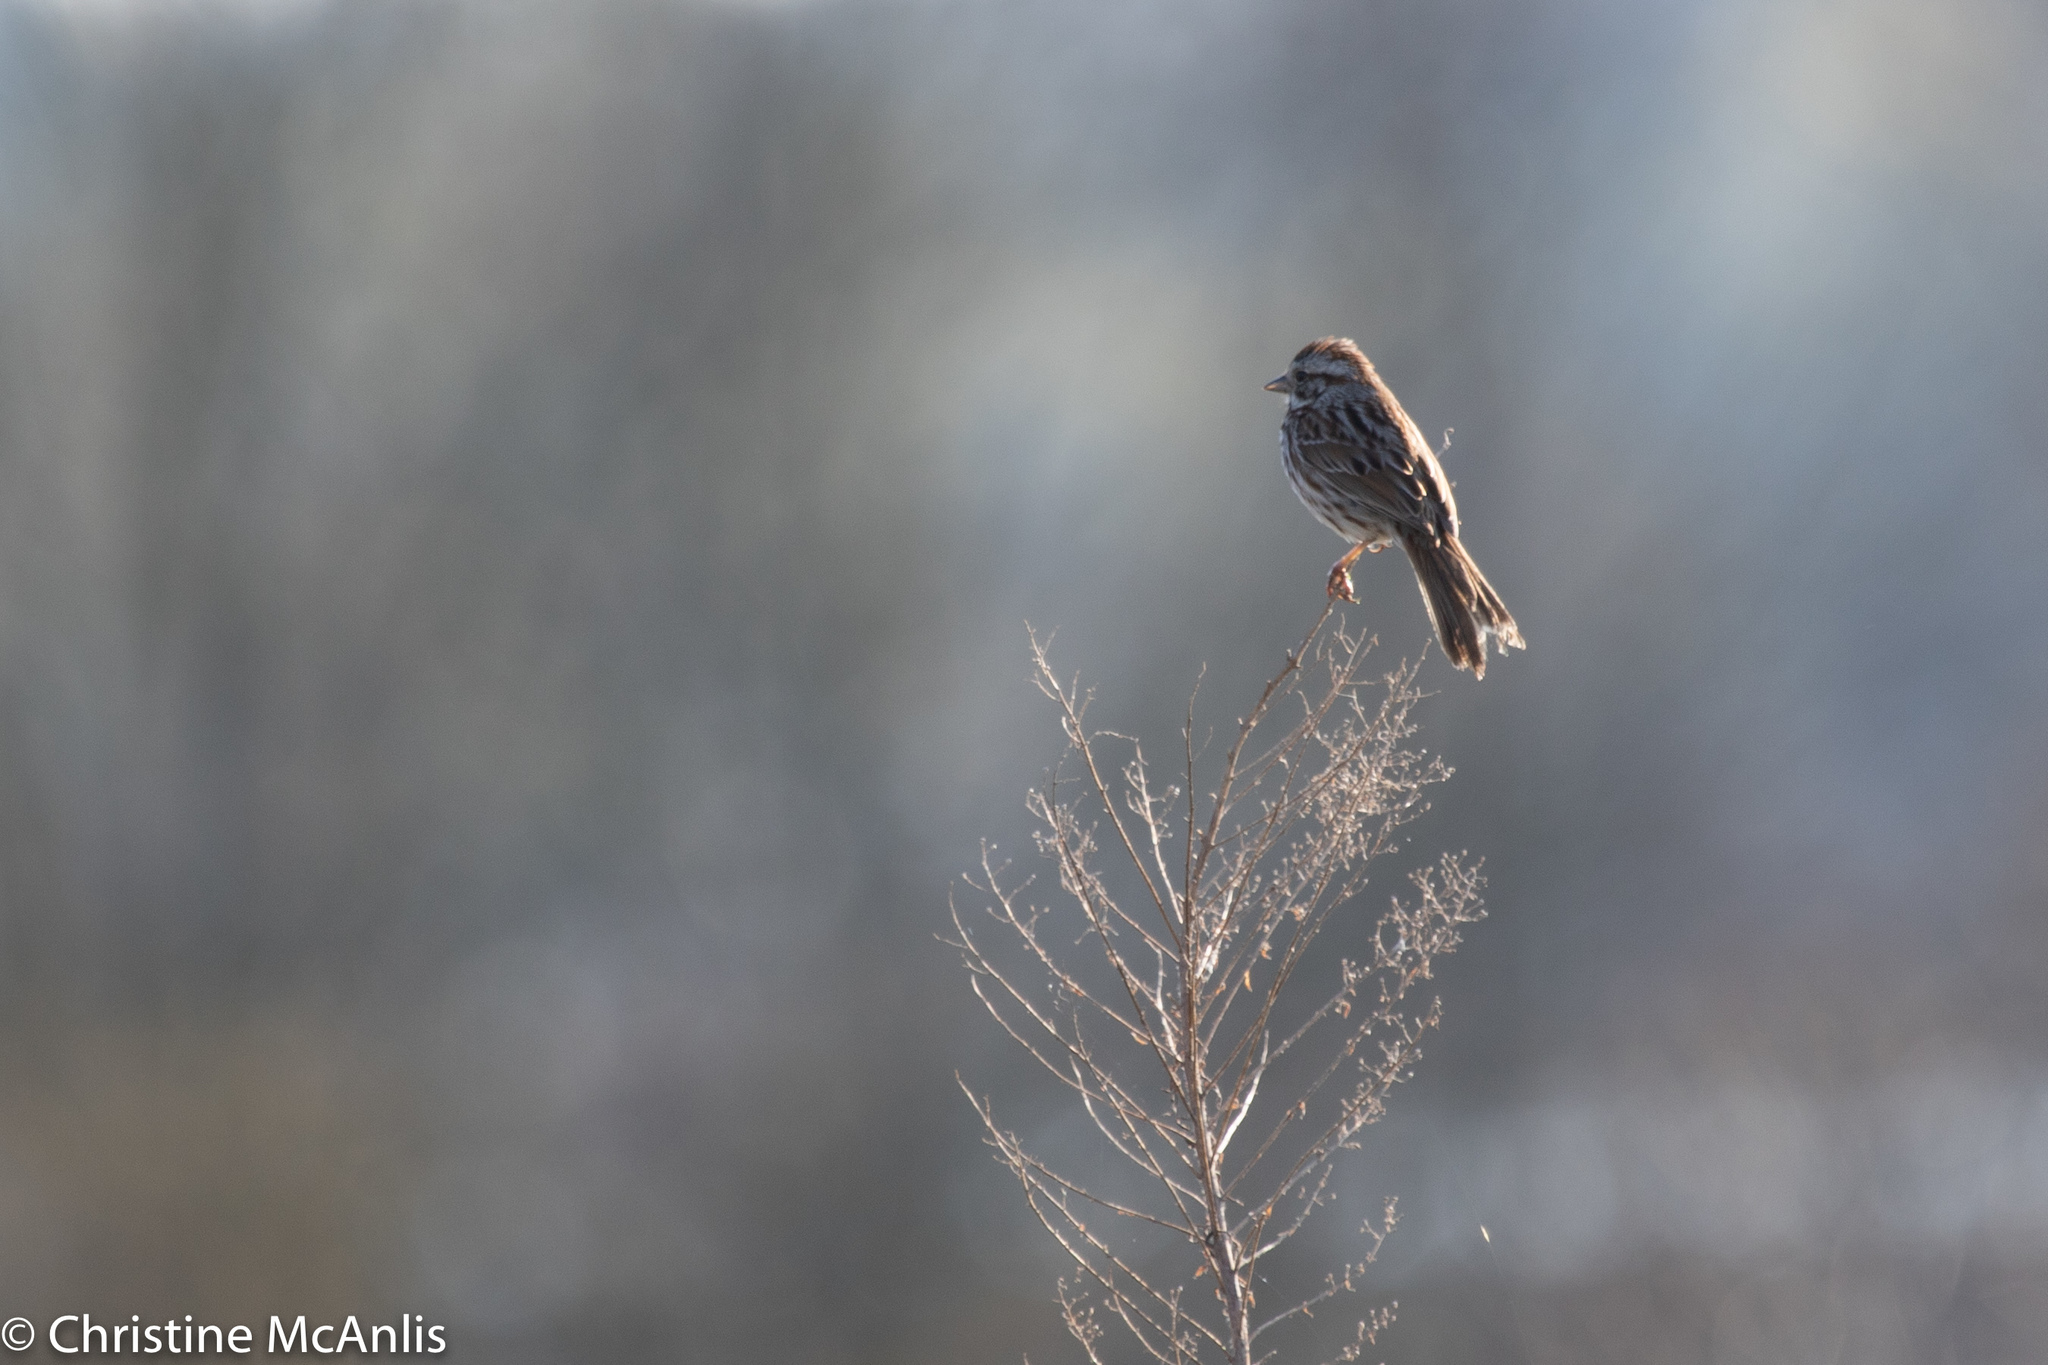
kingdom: Animalia
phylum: Chordata
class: Aves
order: Passeriformes
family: Passerellidae
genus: Melospiza
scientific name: Melospiza melodia
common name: Song sparrow
